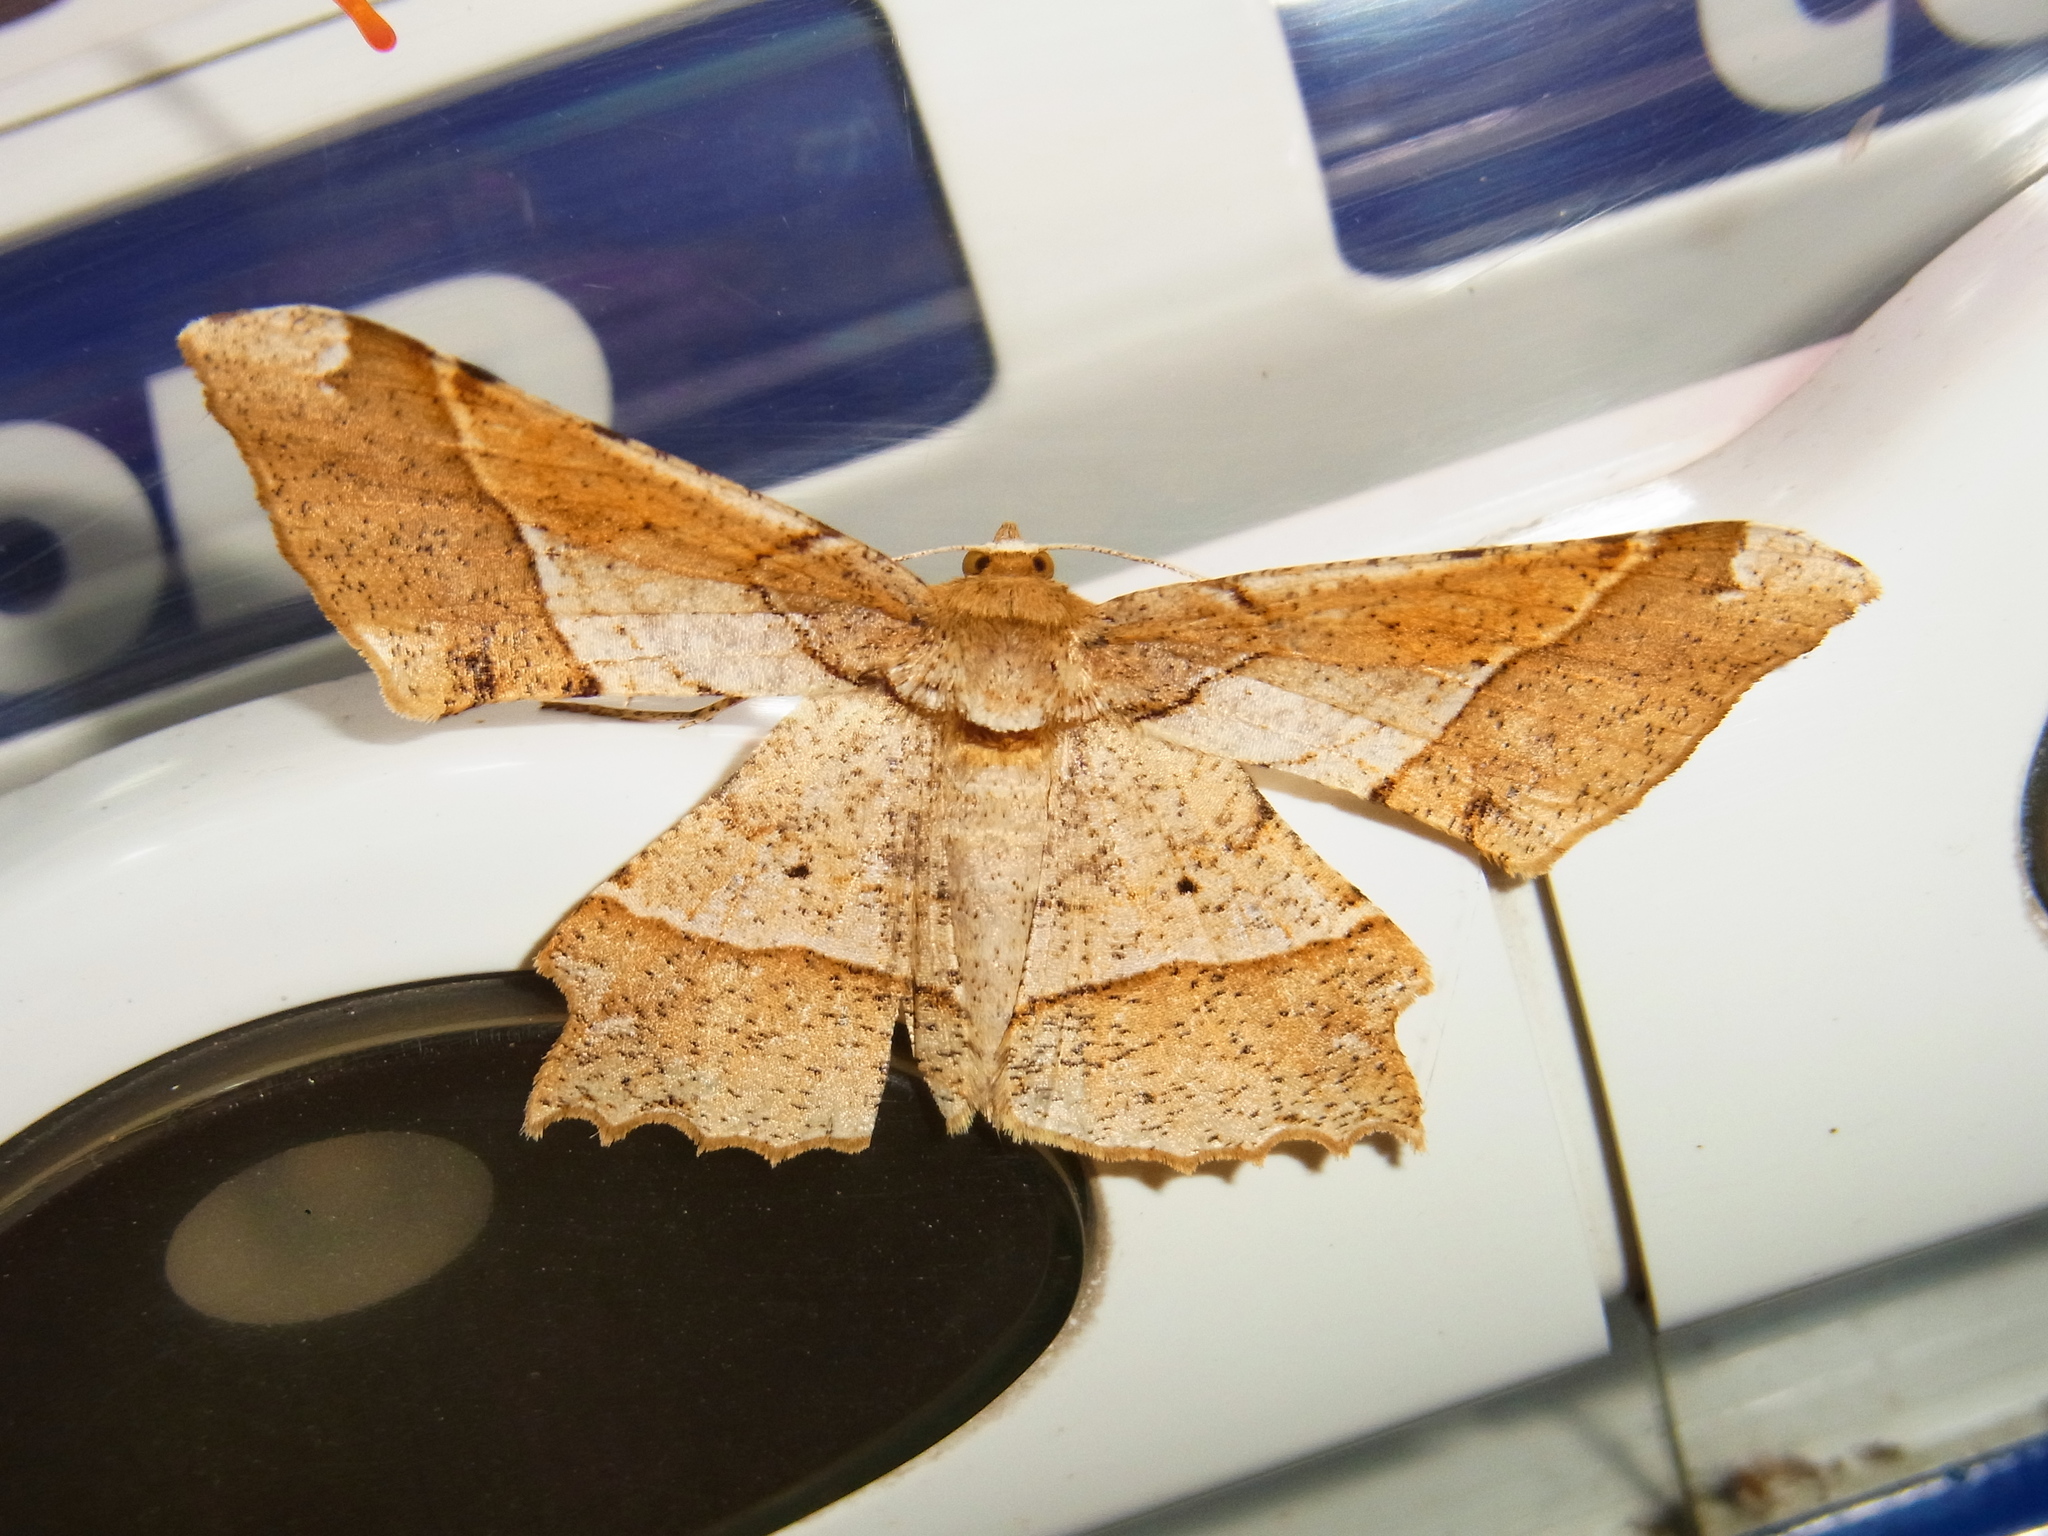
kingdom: Animalia
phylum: Arthropoda
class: Insecta
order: Lepidoptera
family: Geometridae
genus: Krananda
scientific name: Krananda latimarginaria
